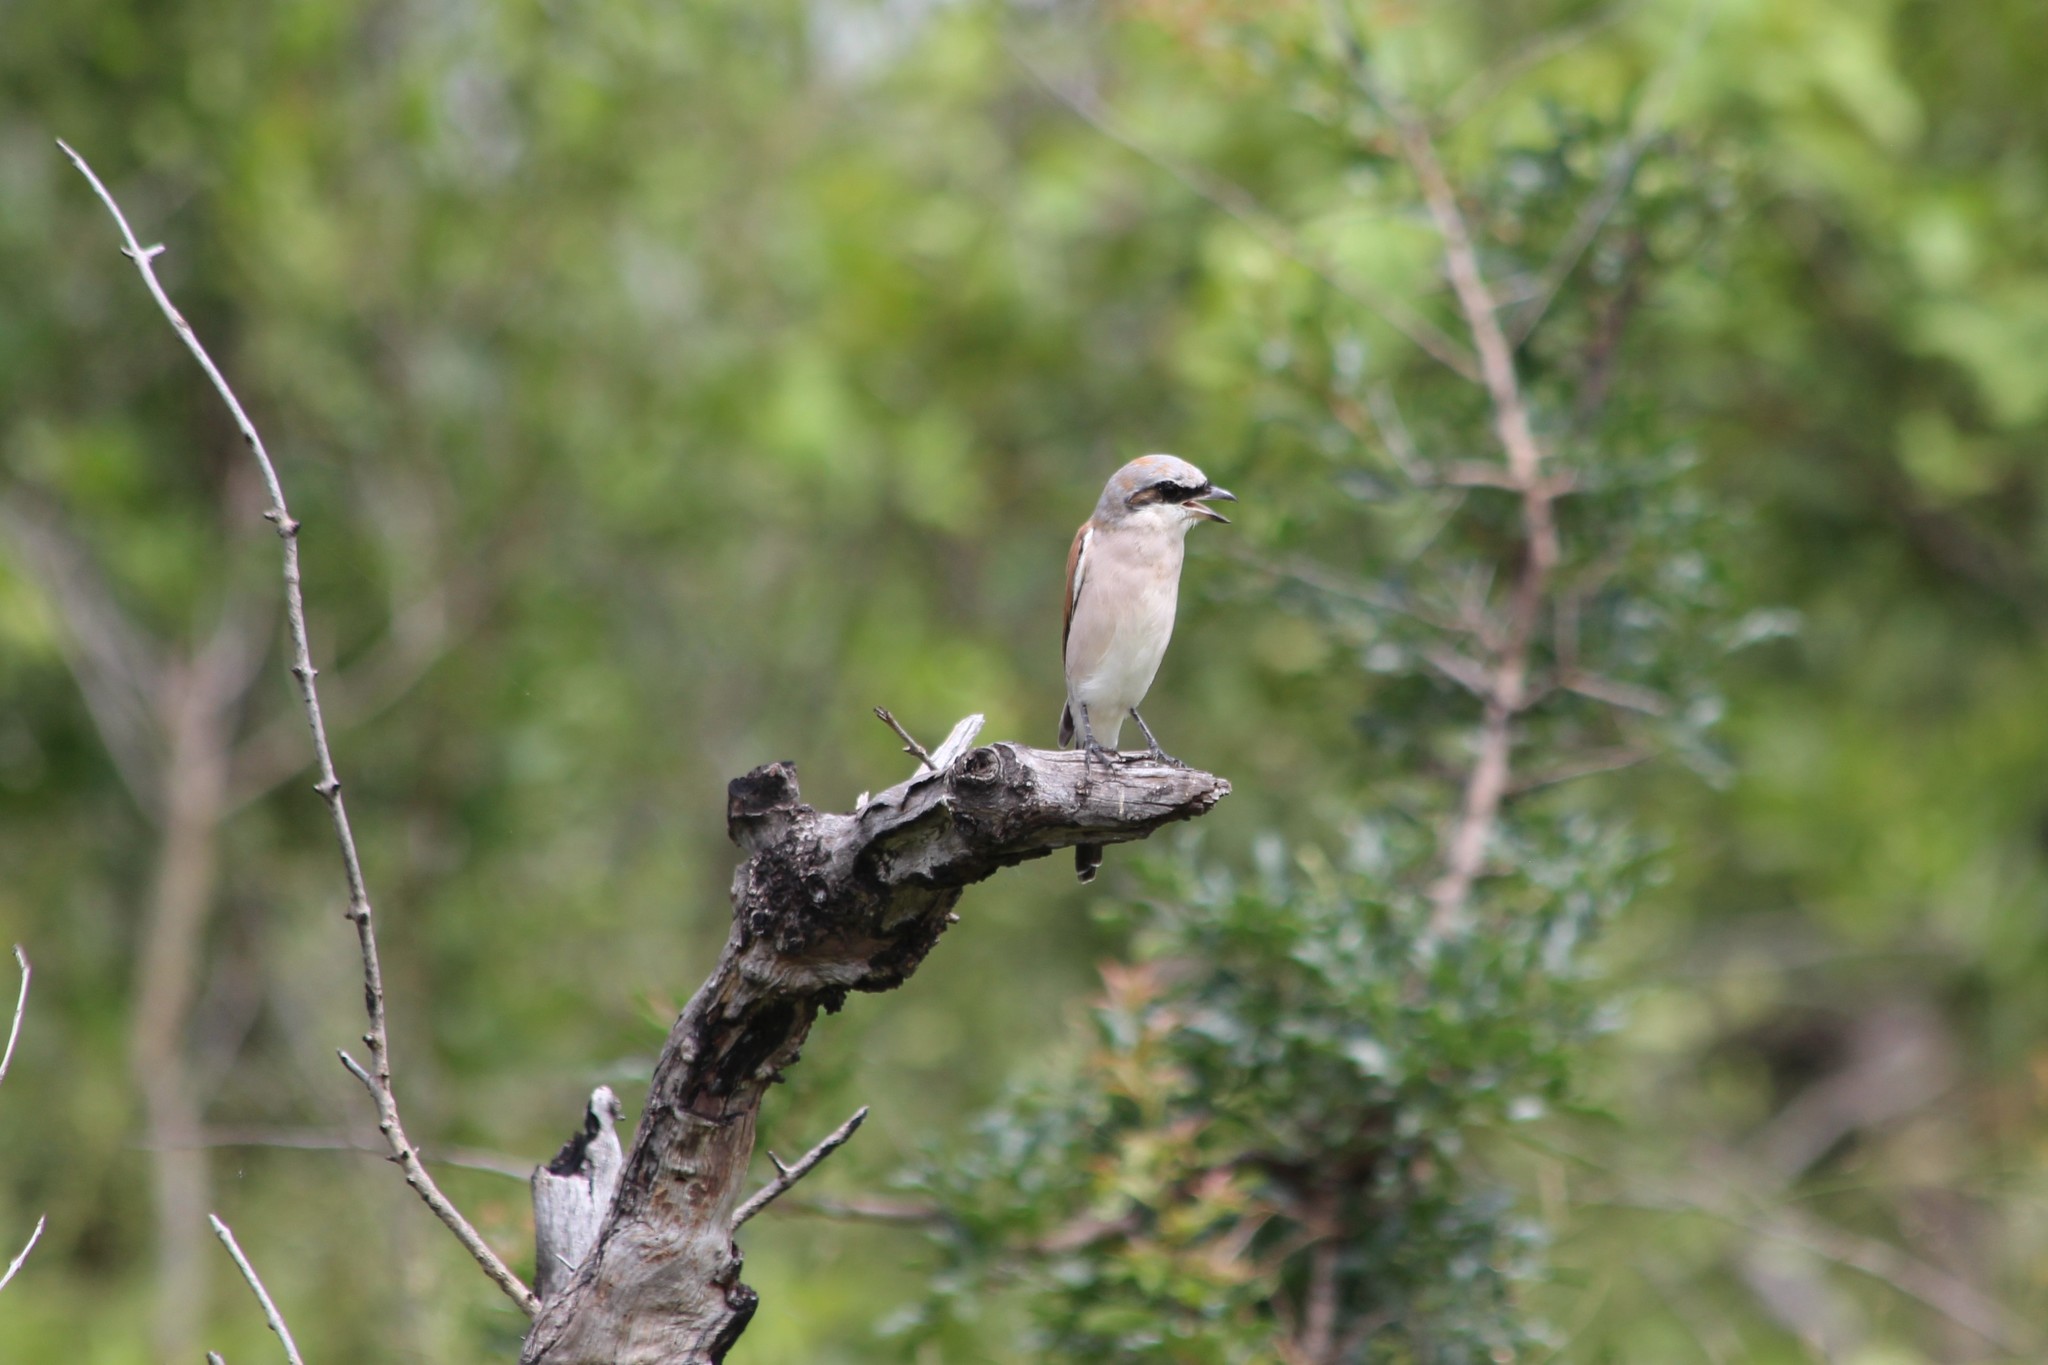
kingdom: Animalia
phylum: Chordata
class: Aves
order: Passeriformes
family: Laniidae
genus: Lanius
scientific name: Lanius collurio
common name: Red-backed shrike
